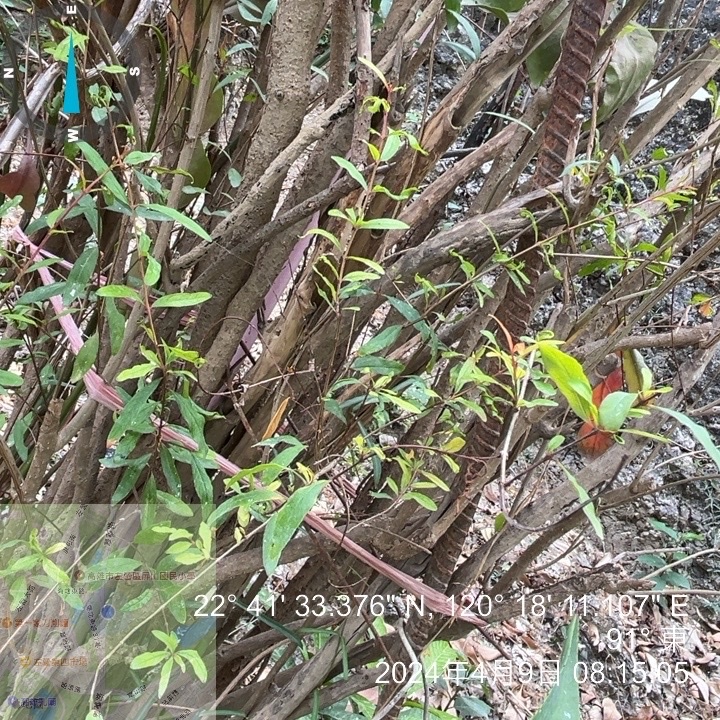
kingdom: Plantae
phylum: Tracheophyta
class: Magnoliopsida
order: Malpighiales
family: Salicaceae
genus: Scolopia
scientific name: Scolopia oldhamii
